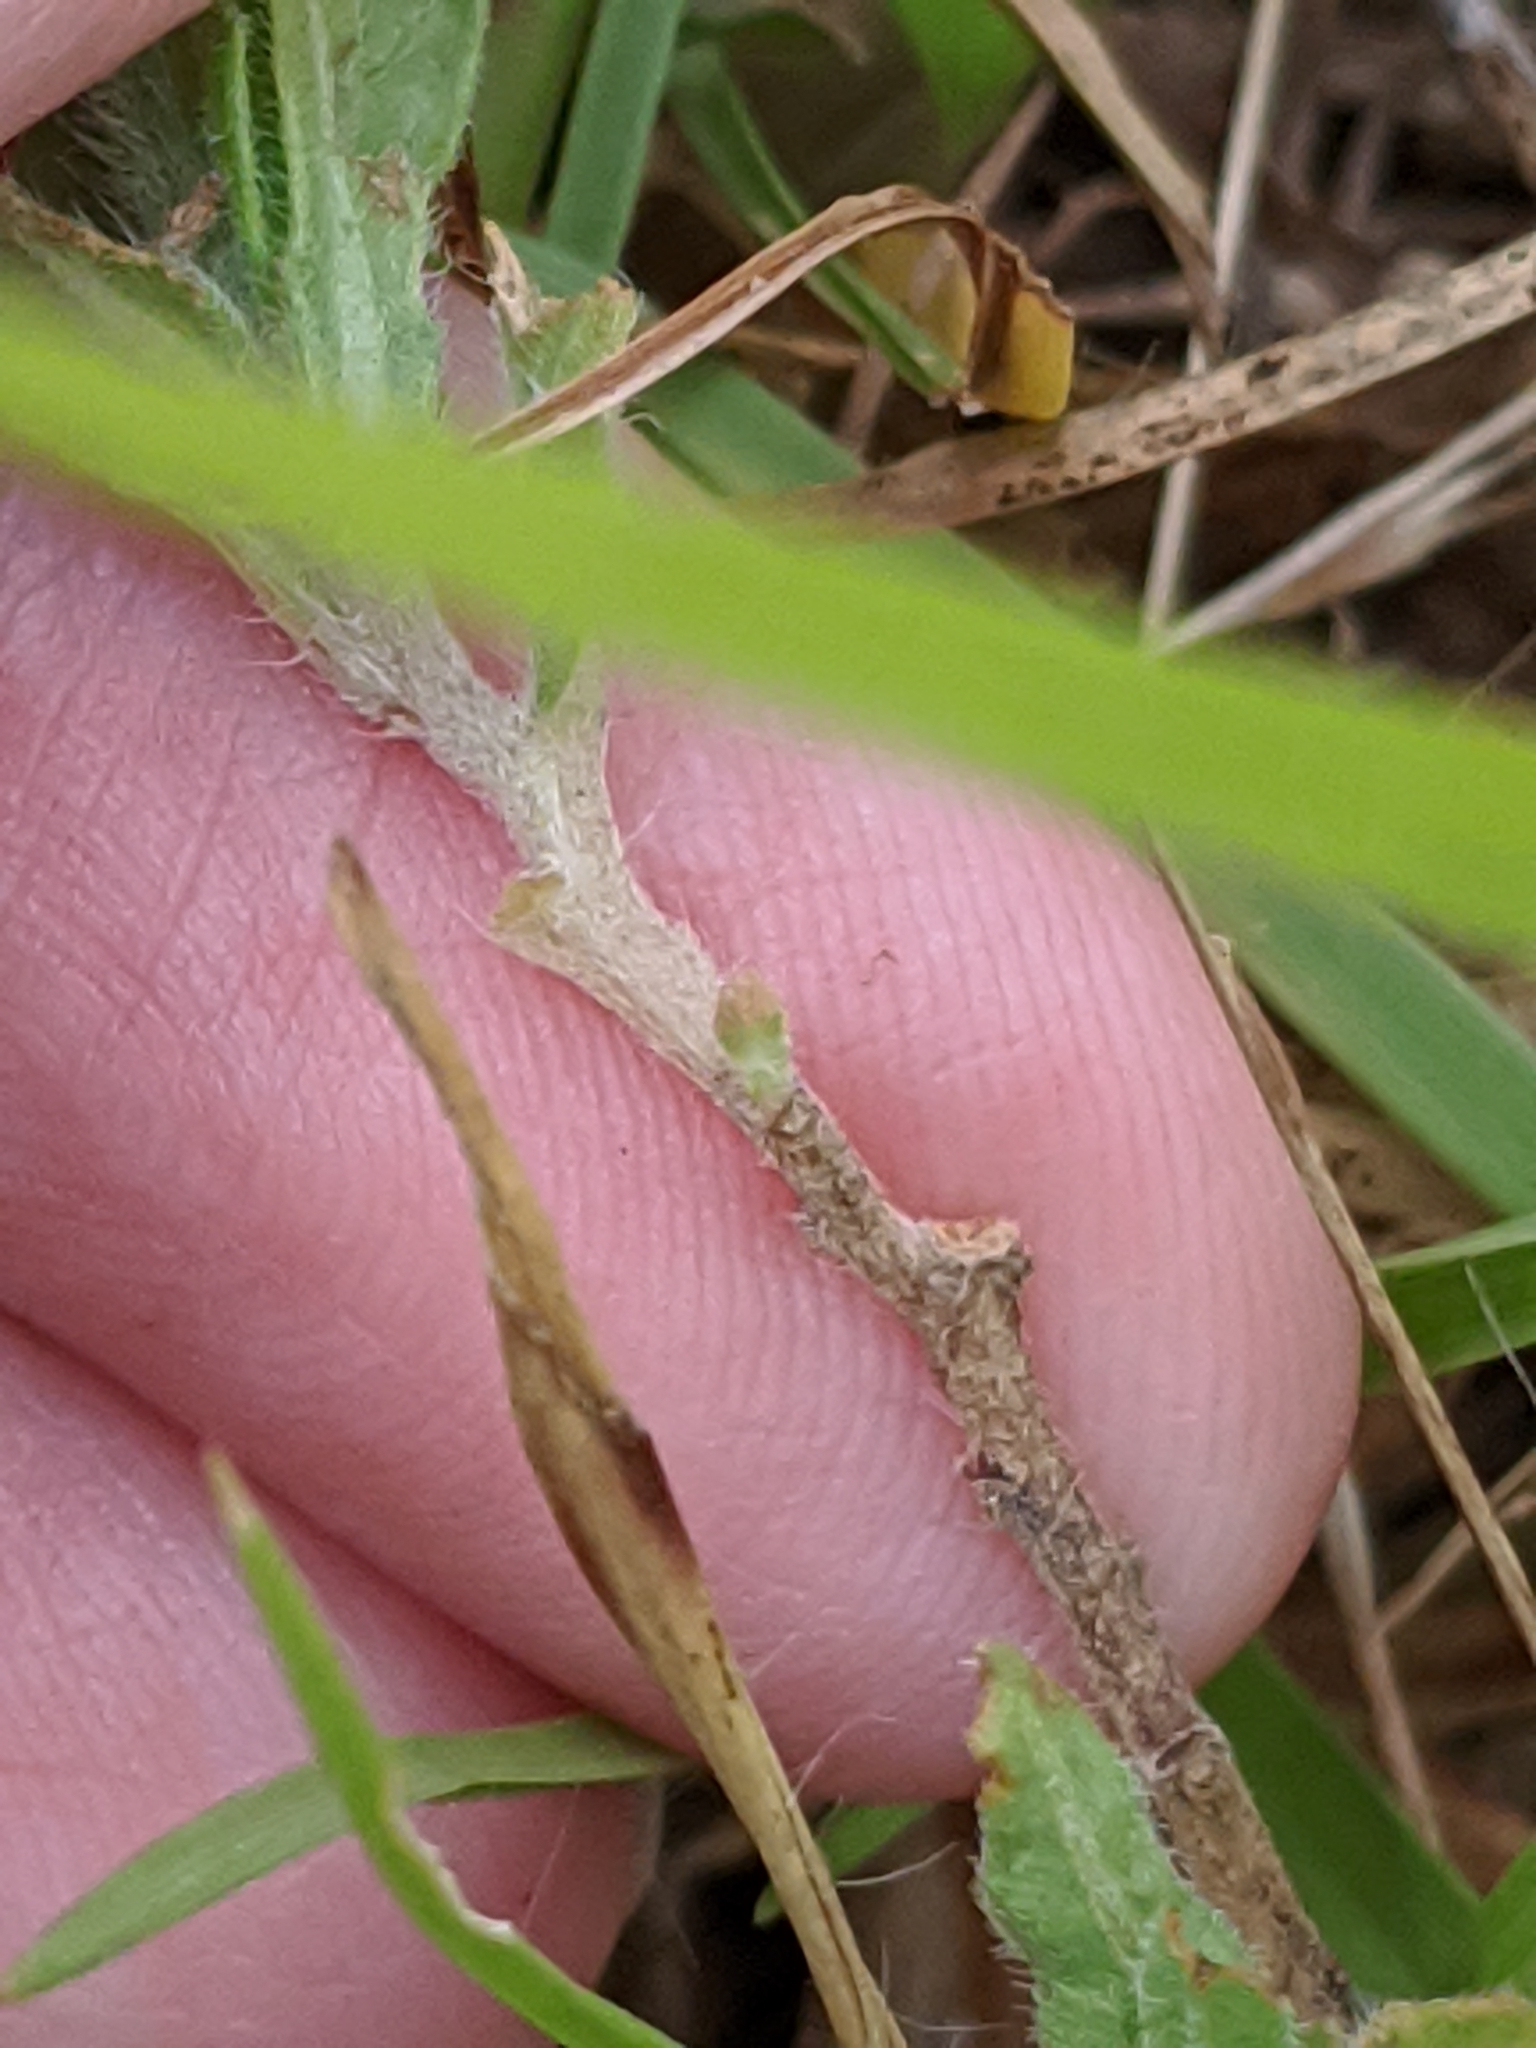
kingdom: Plantae
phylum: Tracheophyta
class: Magnoliopsida
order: Myrtales
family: Onagraceae
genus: Oenothera
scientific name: Oenothera laciniata
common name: Cut-leaved evening-primrose
